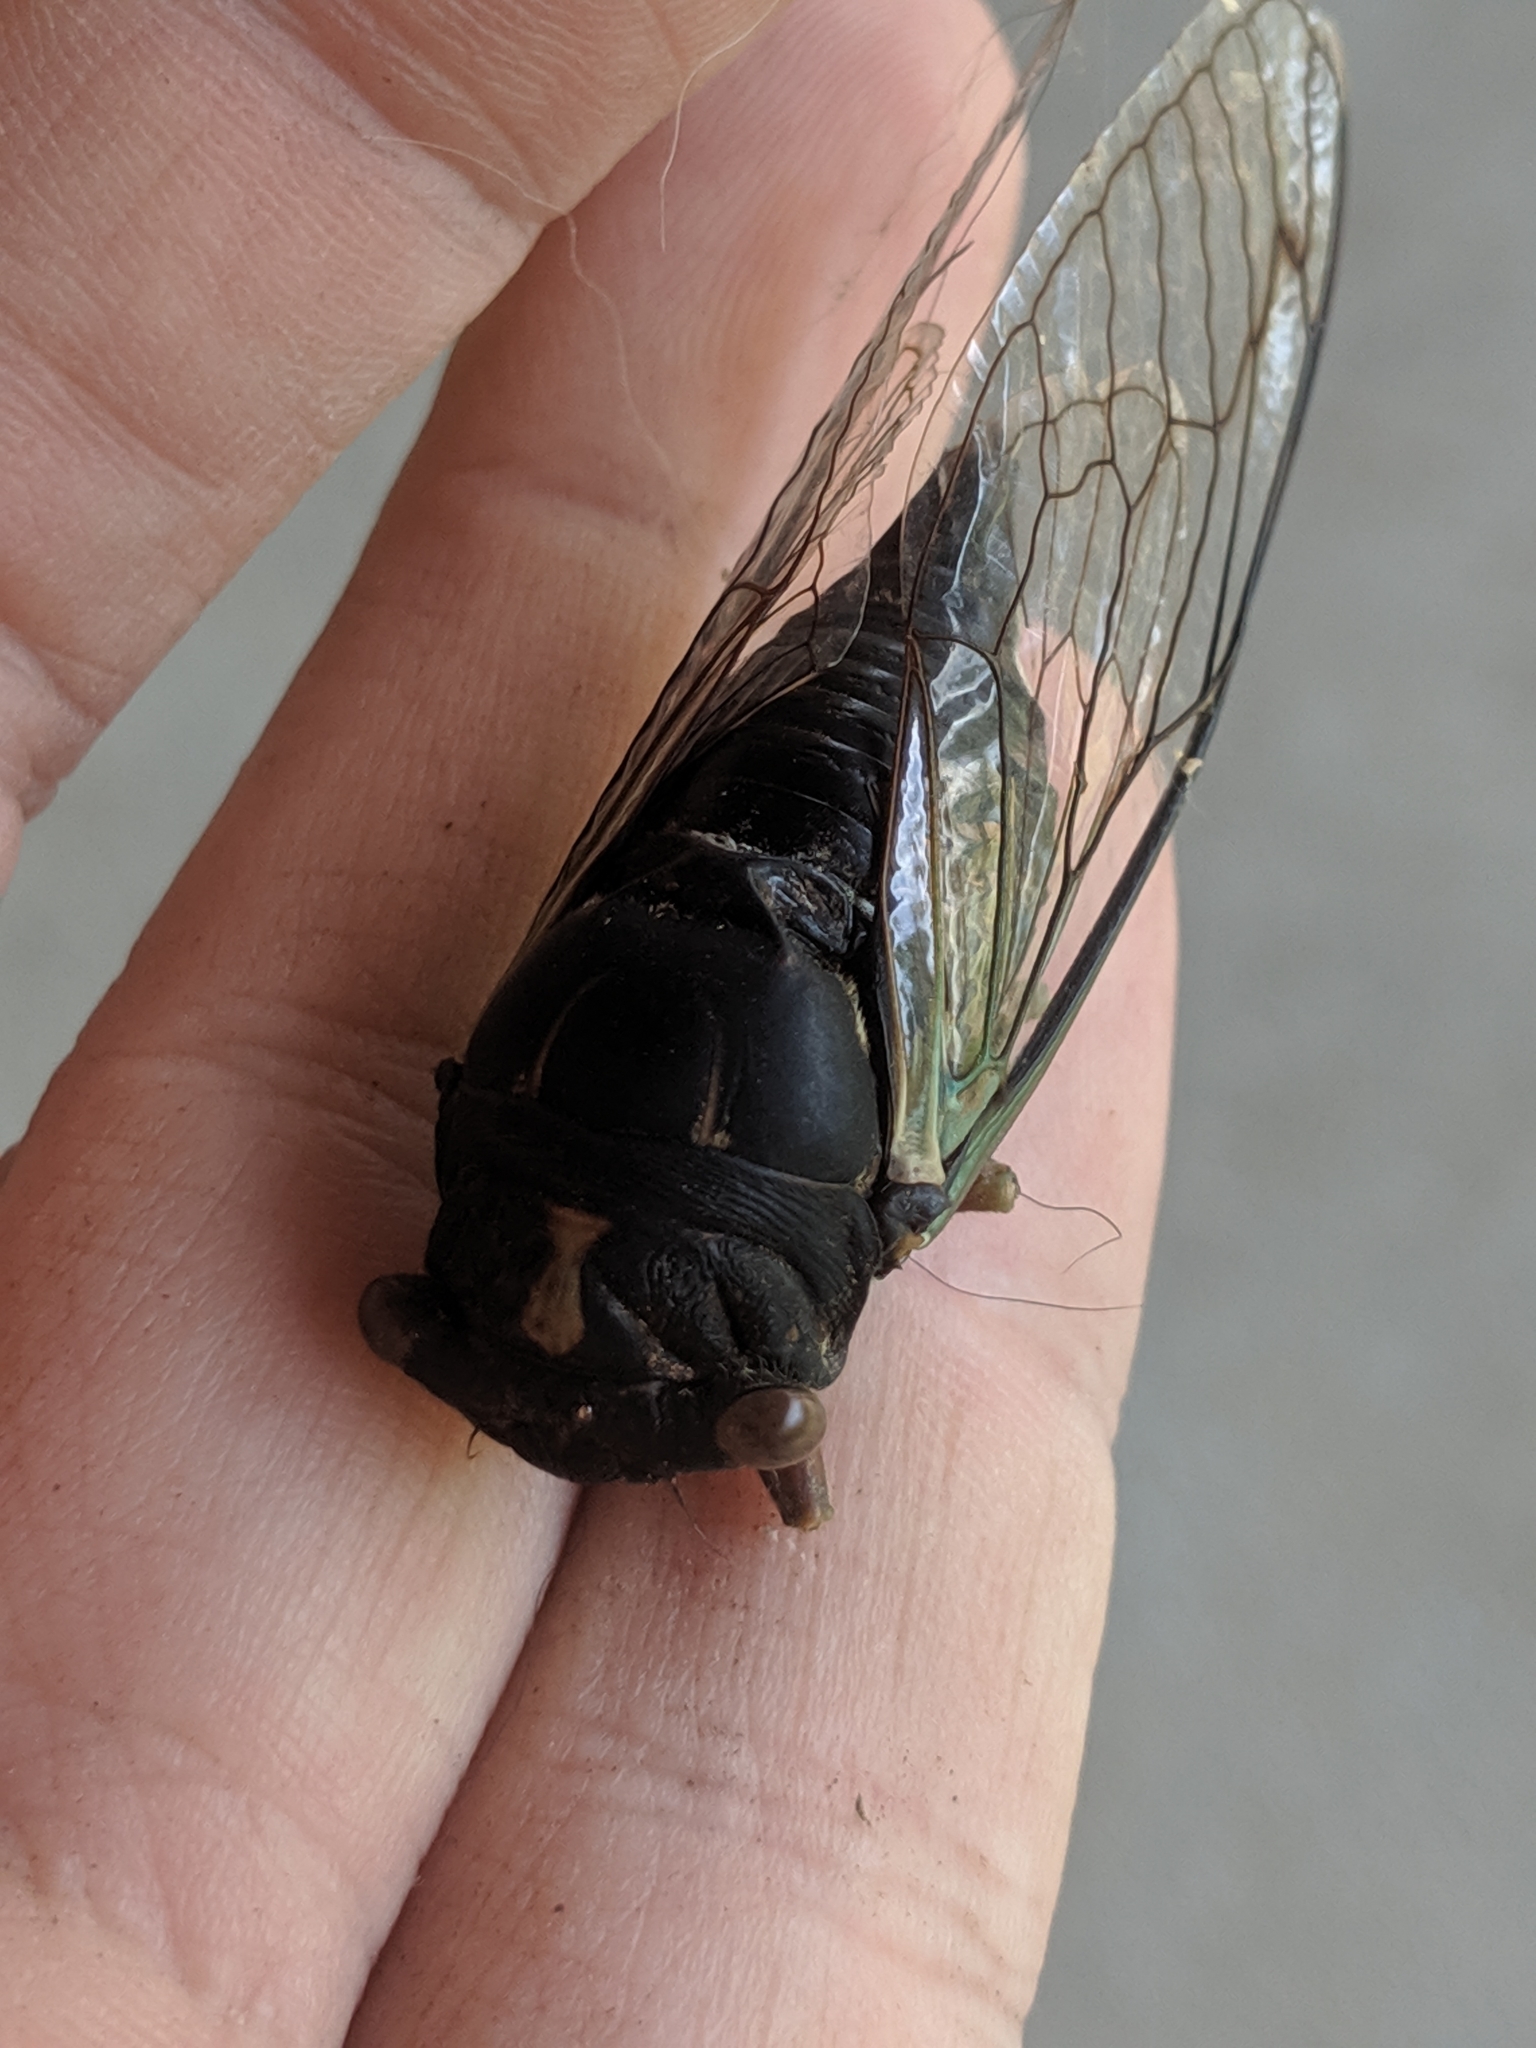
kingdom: Animalia
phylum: Arthropoda
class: Insecta
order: Hemiptera
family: Cicadidae
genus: Neotibicen
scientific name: Neotibicen lyricen
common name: Lyric cicada
